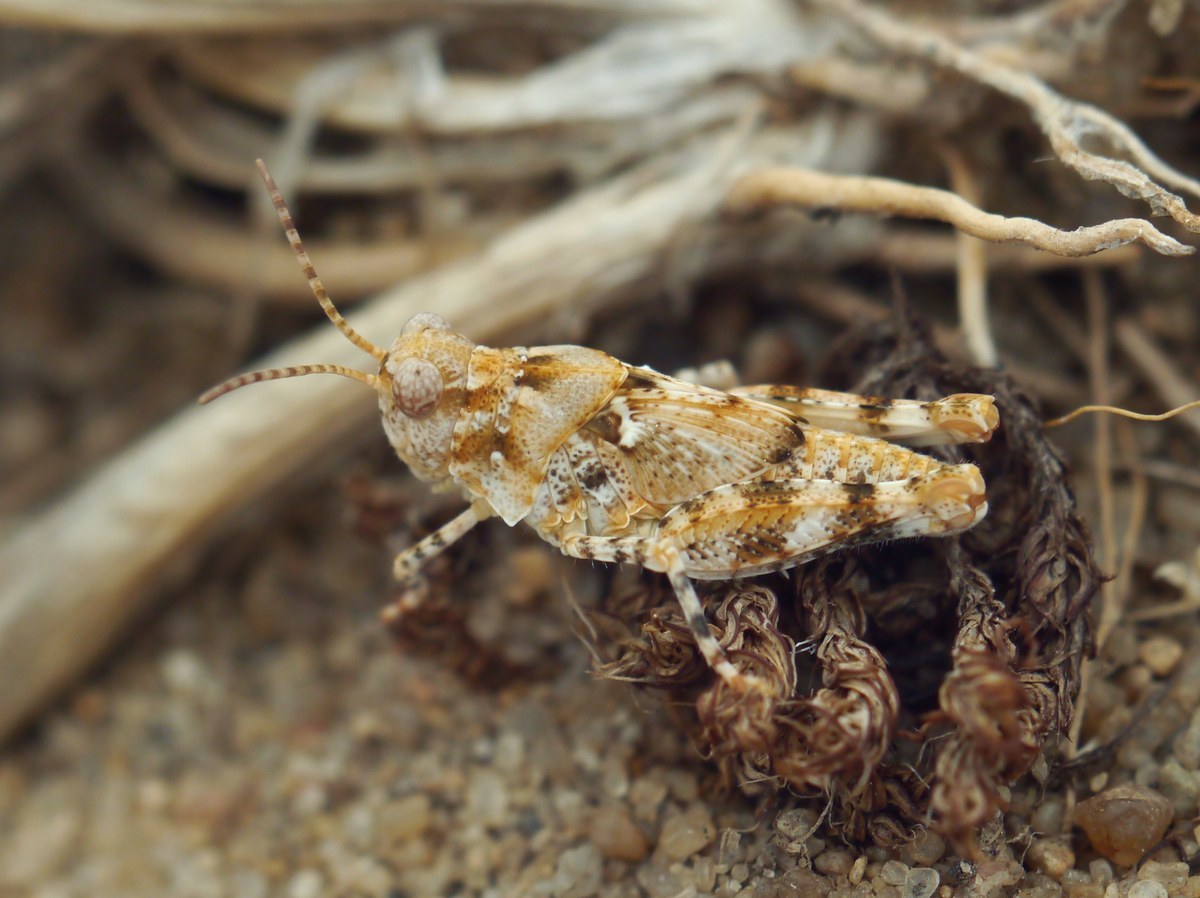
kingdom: Animalia
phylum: Arthropoda
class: Insecta
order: Orthoptera
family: Acrididae
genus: Sphingonotus
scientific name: Sphingonotus caerulans
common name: Blue-winged locust
